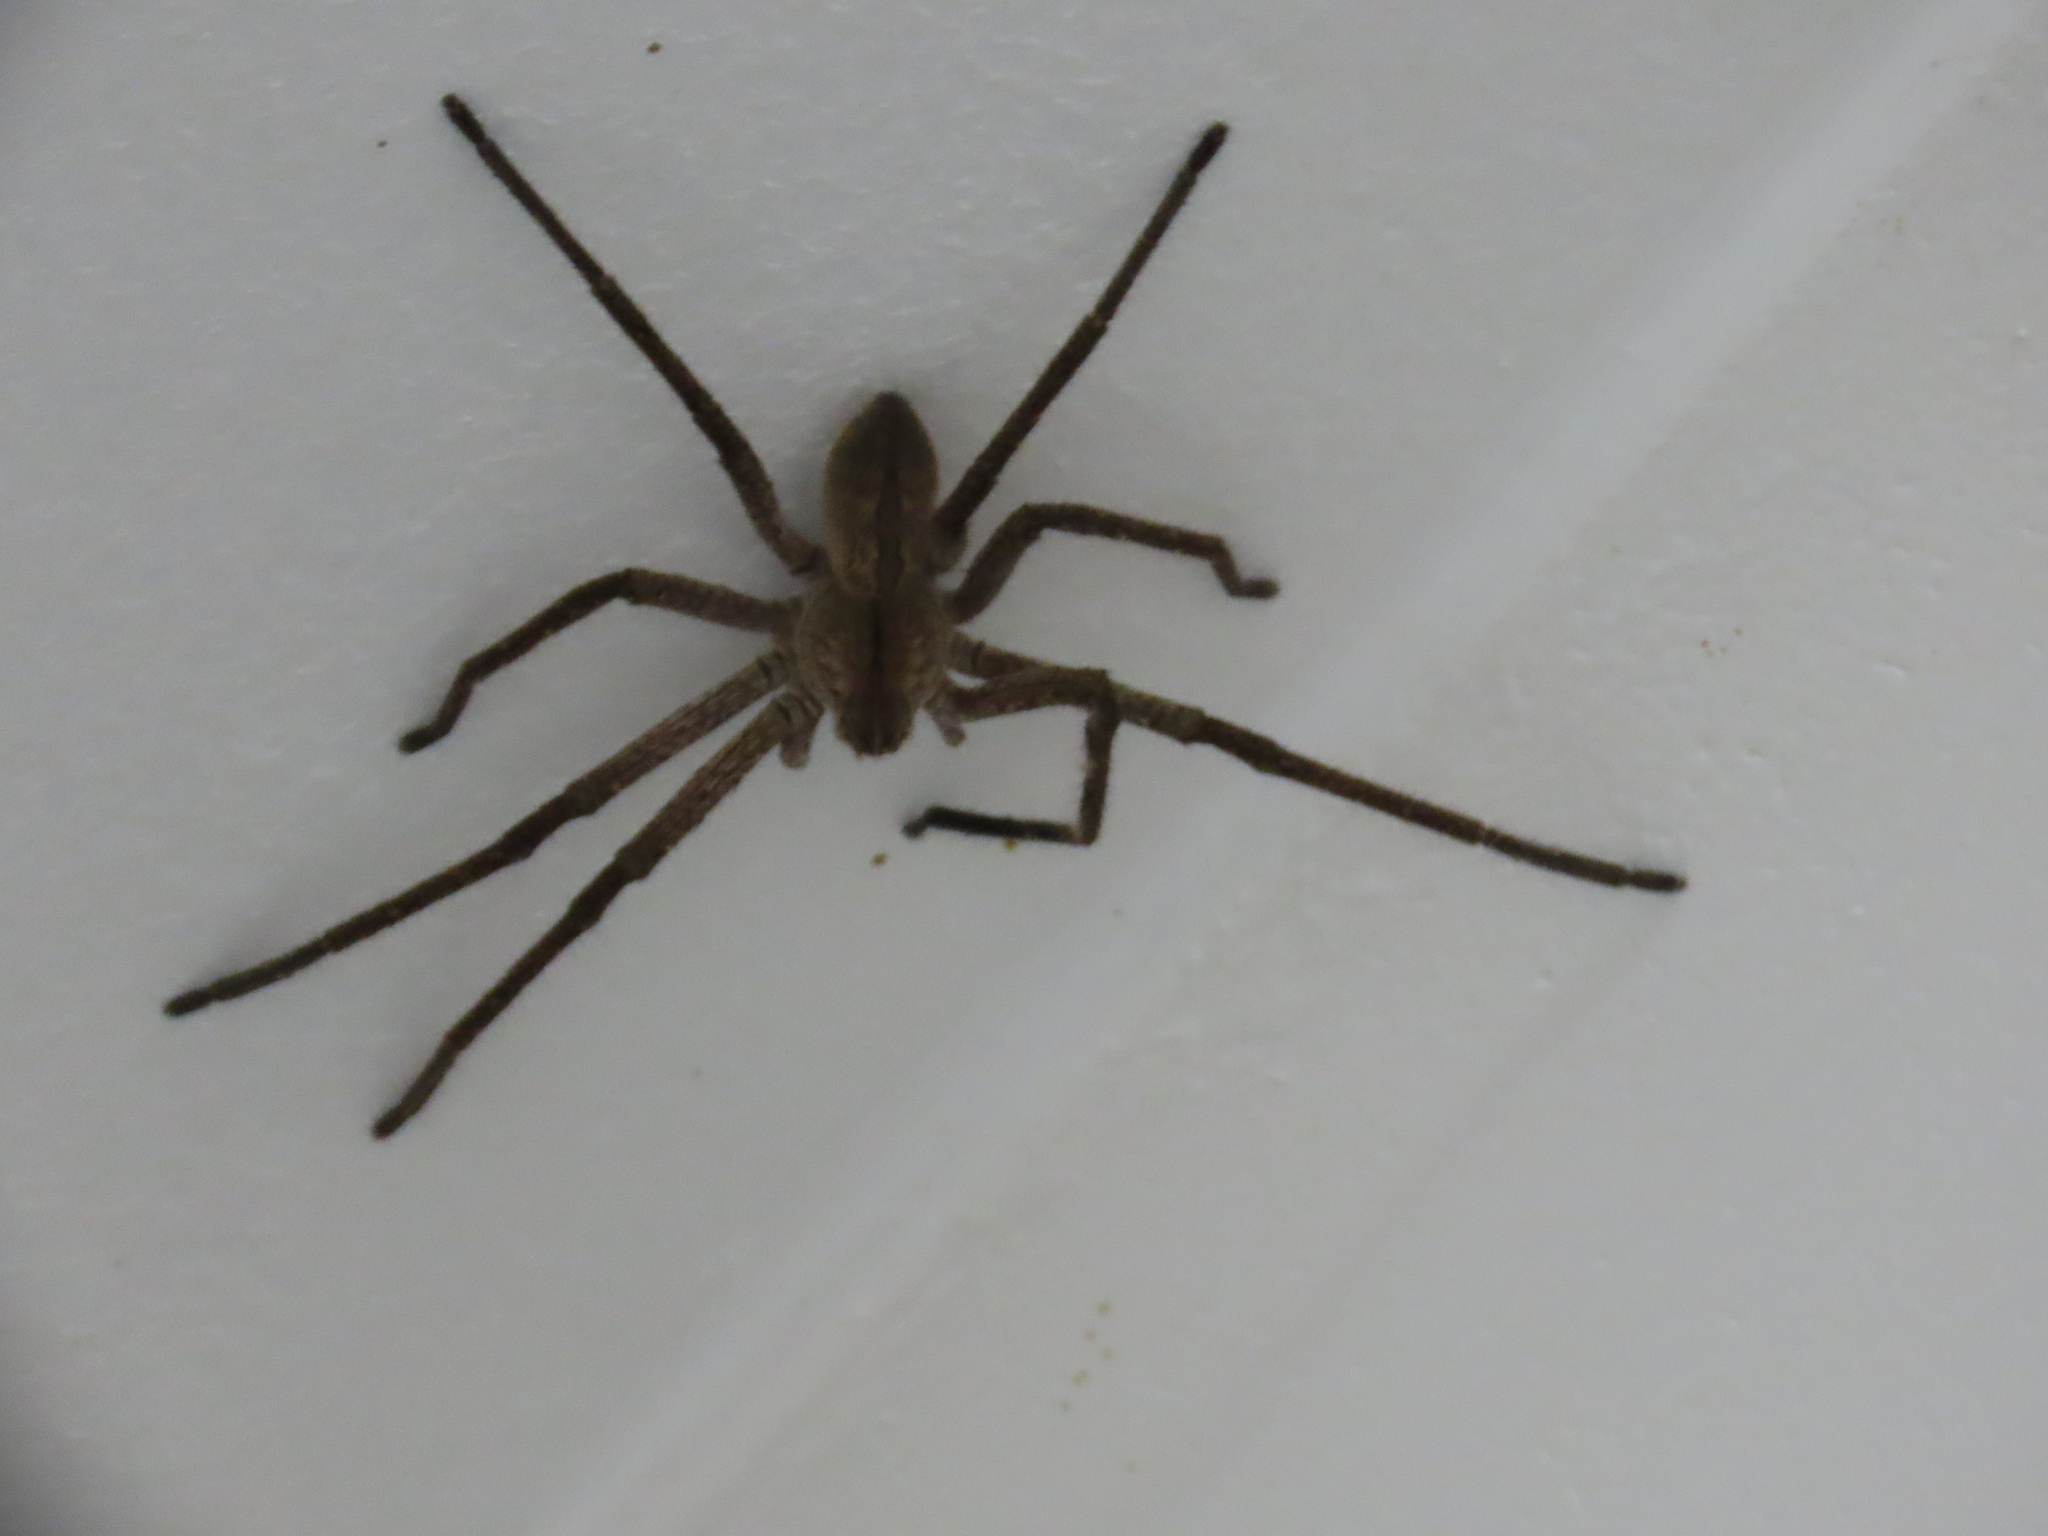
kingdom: Animalia
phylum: Arthropoda
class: Arachnida
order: Araneae
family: Sparassidae
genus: Palystes
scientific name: Palystes superciliosus
